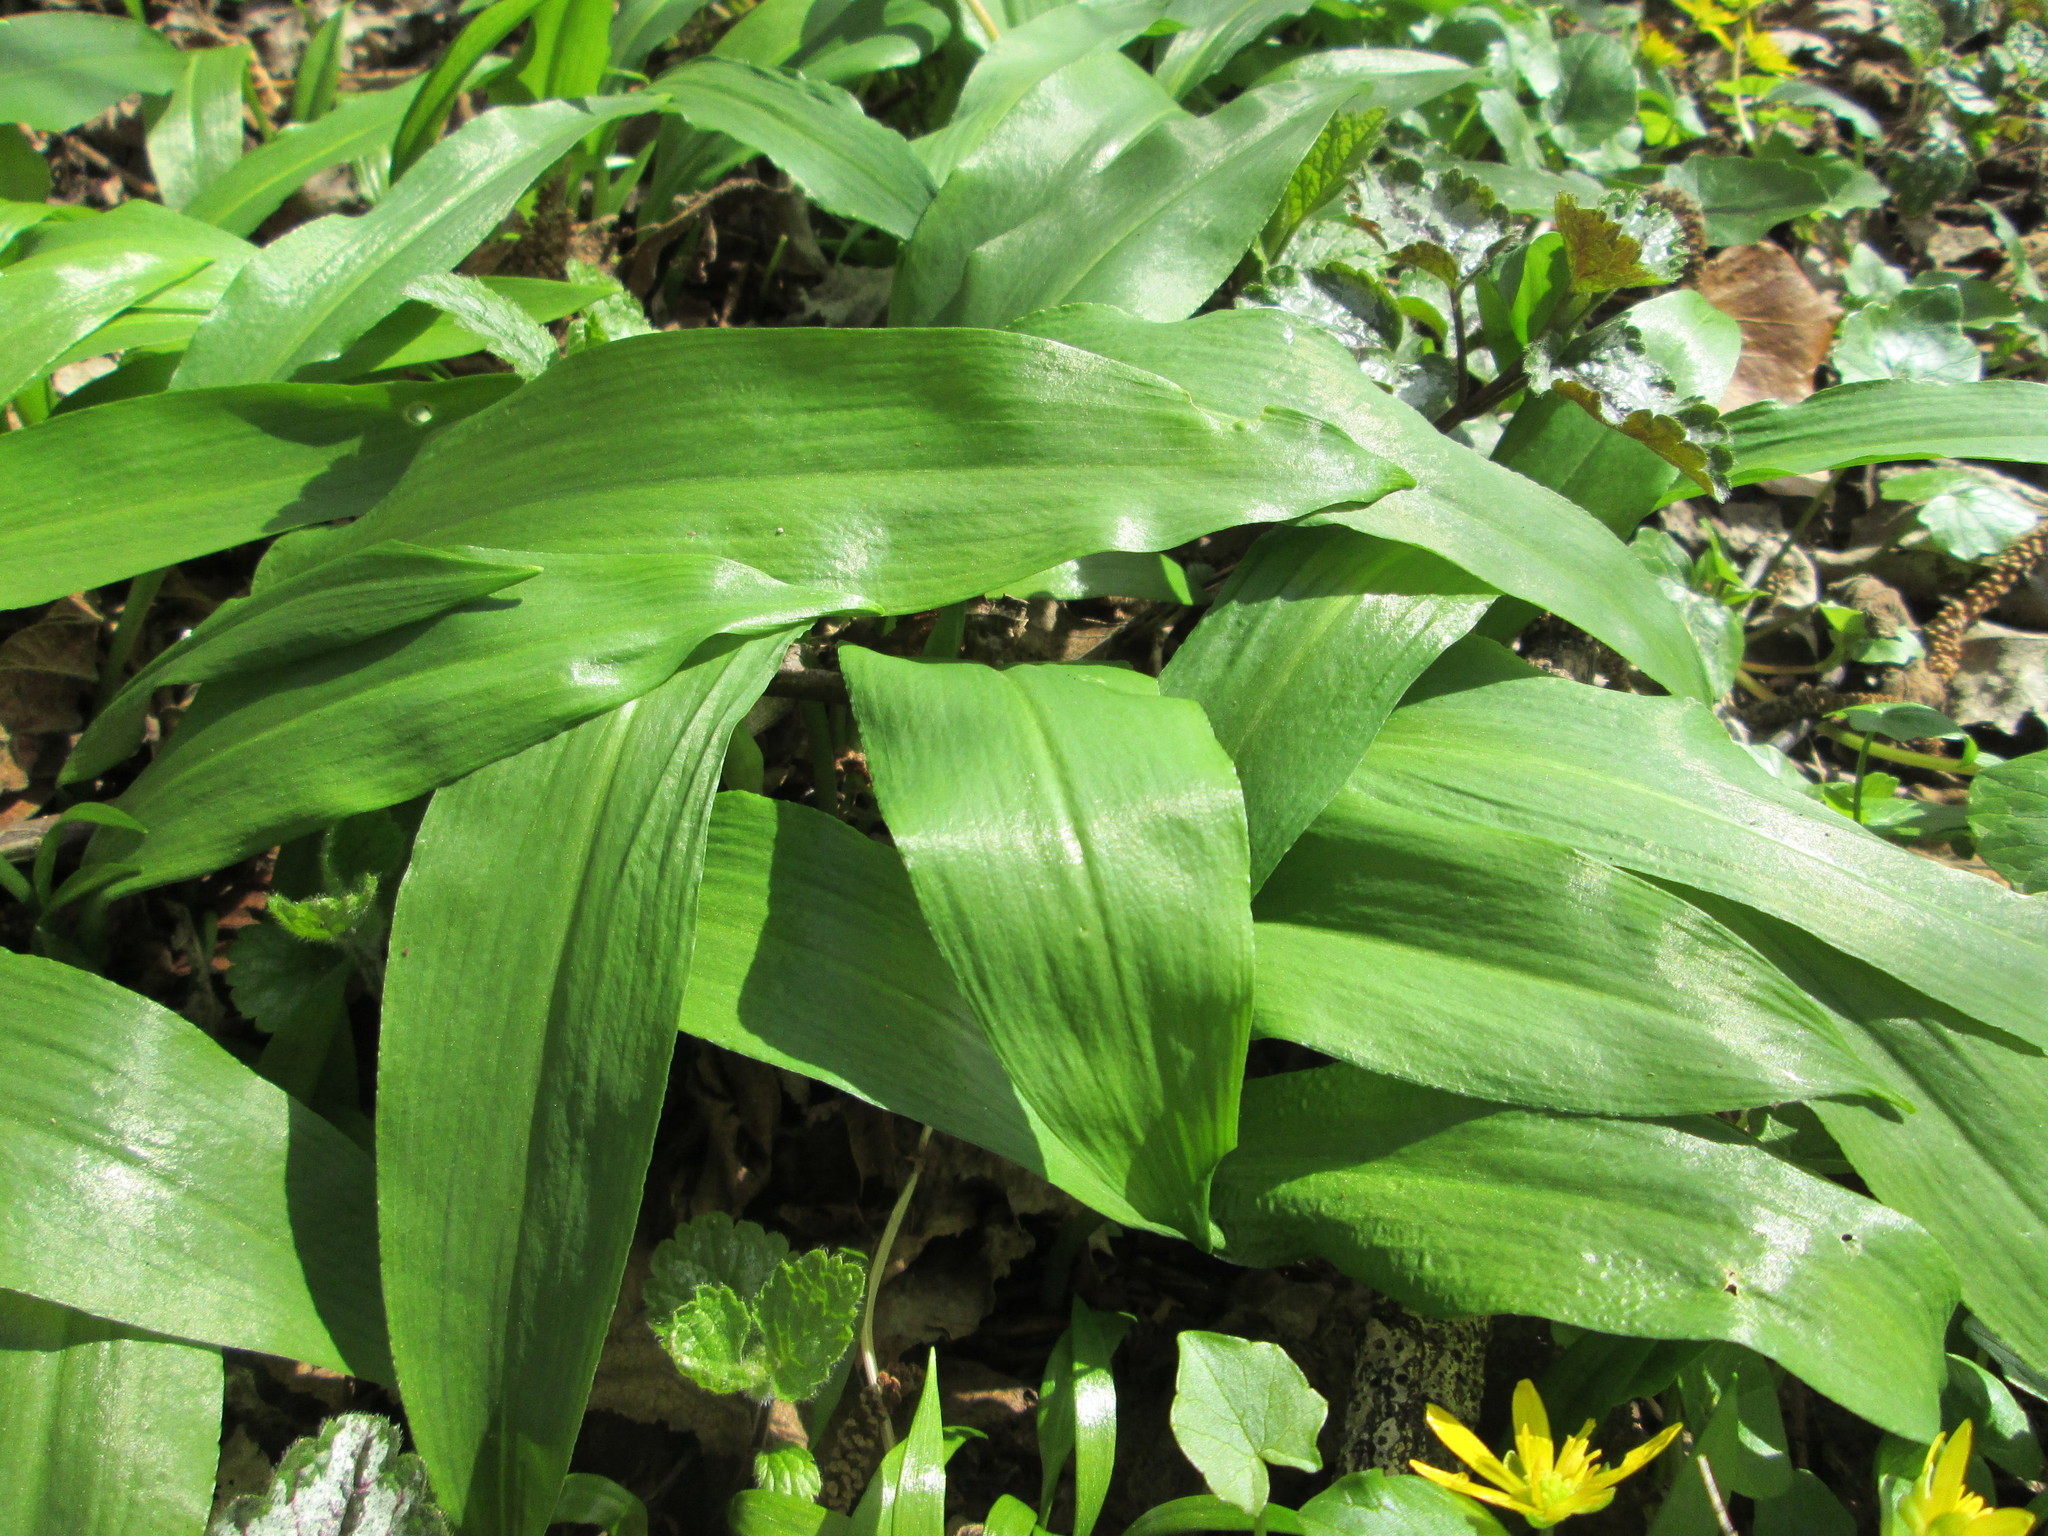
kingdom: Plantae
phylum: Tracheophyta
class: Liliopsida
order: Asparagales
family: Amaryllidaceae
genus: Allium
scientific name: Allium ursinum
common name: Ramsons
